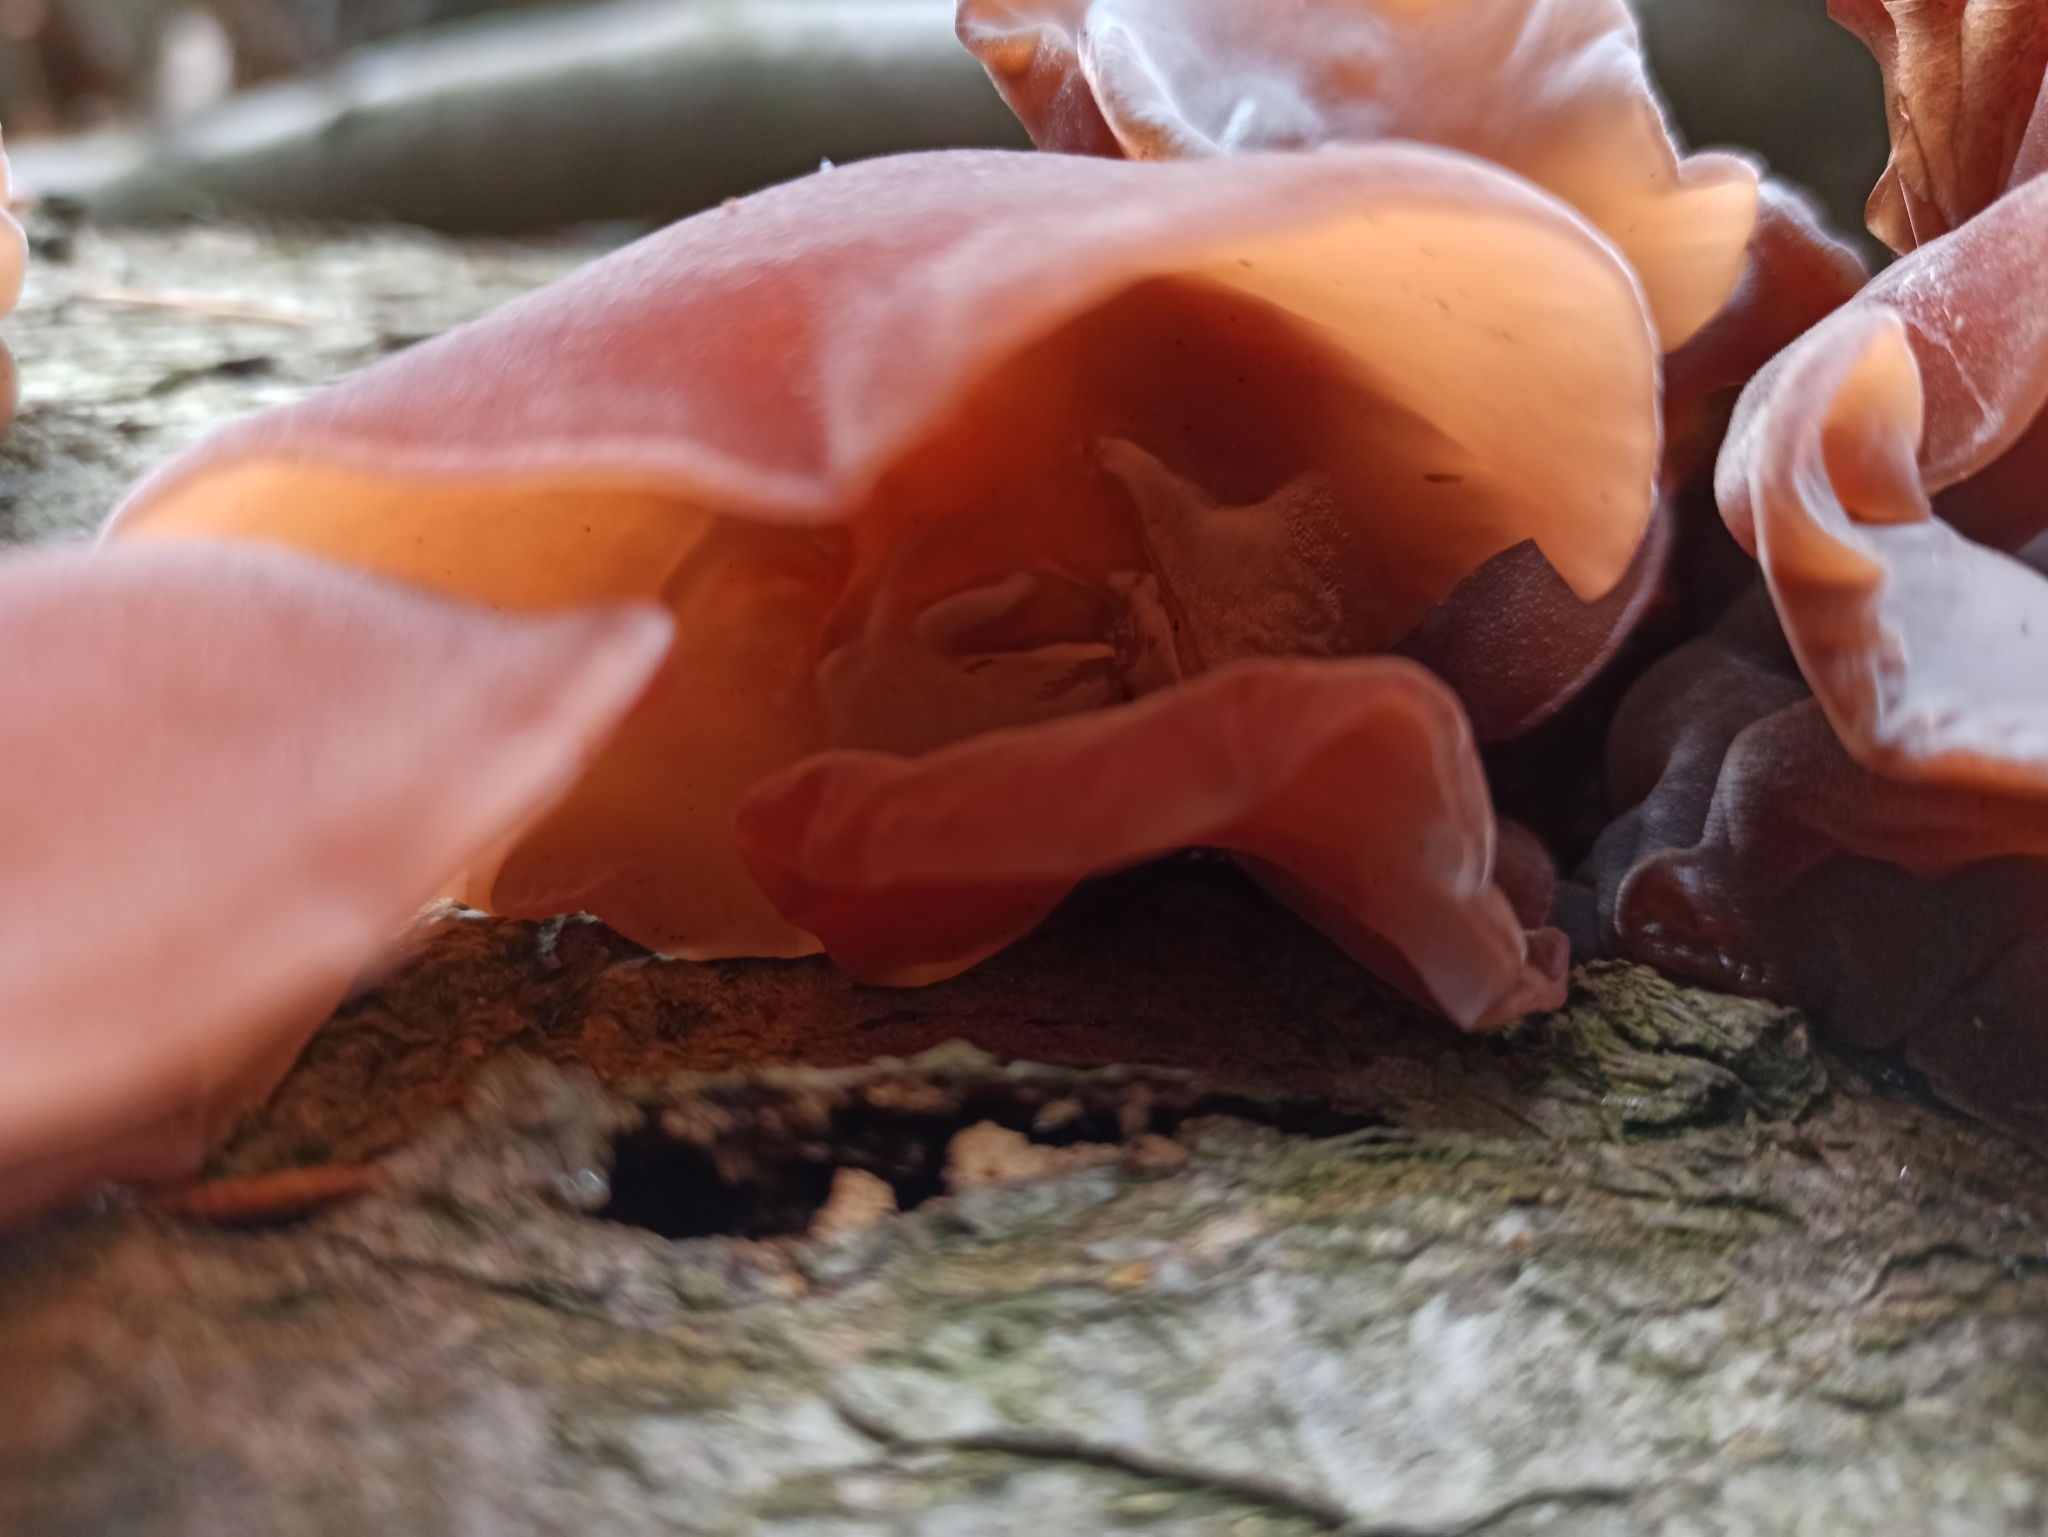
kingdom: Fungi
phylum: Basidiomycota
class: Agaricomycetes
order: Auriculariales
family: Auriculariaceae
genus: Auricularia
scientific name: Auricularia auricula-judae
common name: Jelly ear
